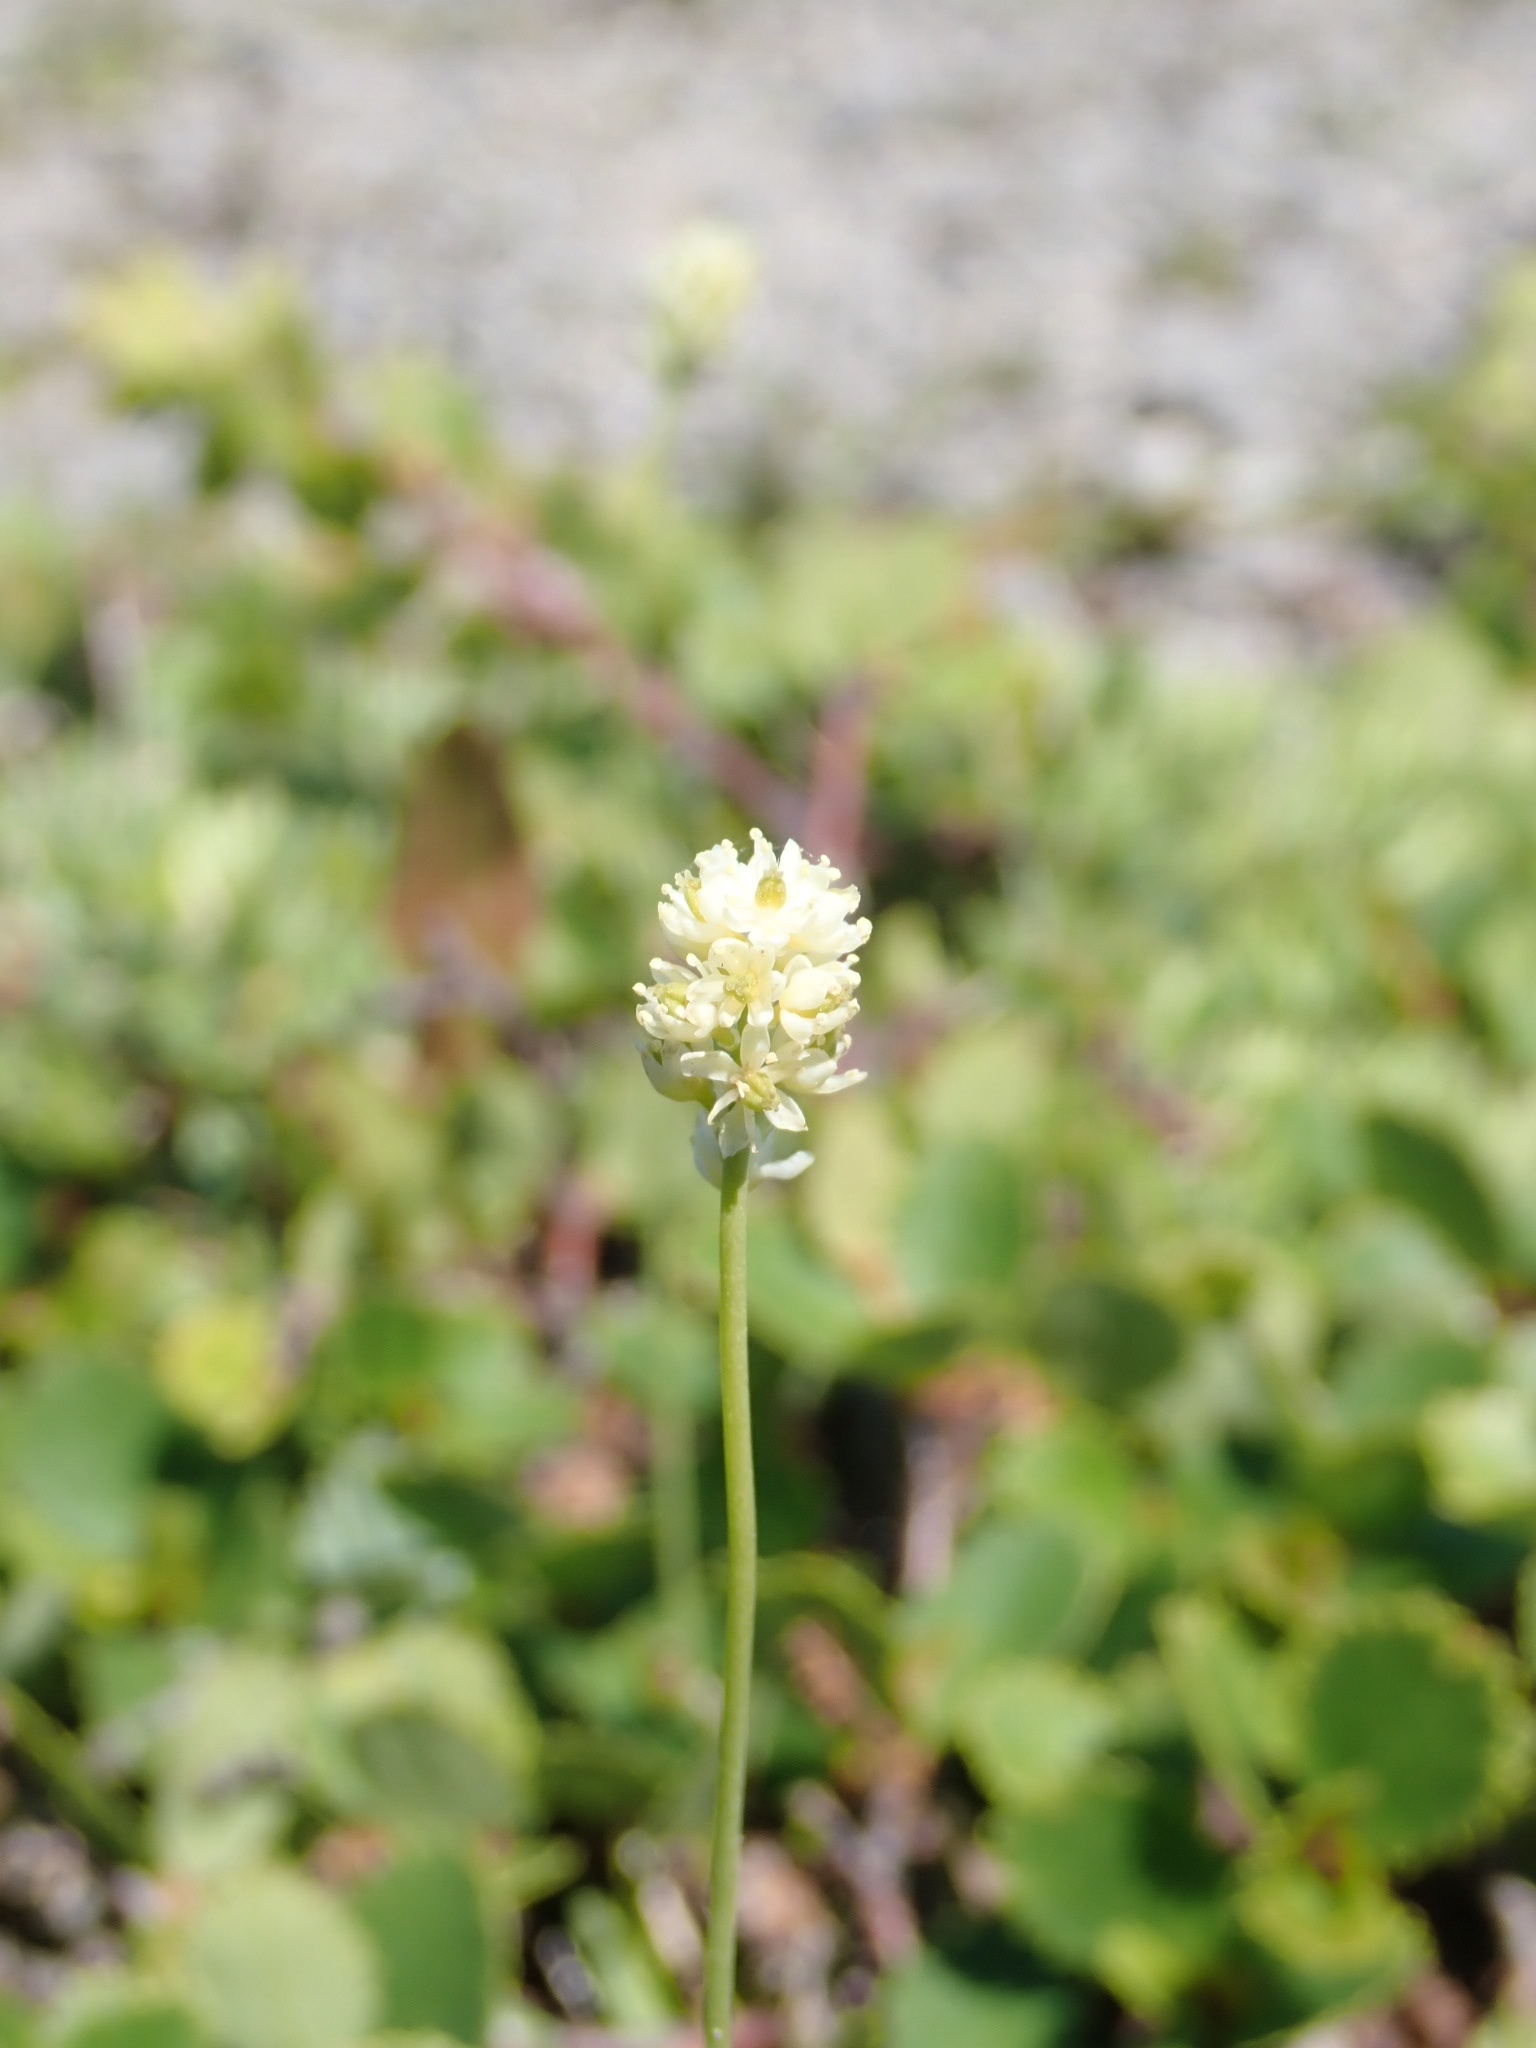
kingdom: Plantae
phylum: Tracheophyta
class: Liliopsida
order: Alismatales
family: Tofieldiaceae
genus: Triantha
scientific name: Triantha glutinosa
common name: Glutinous tofieldia
